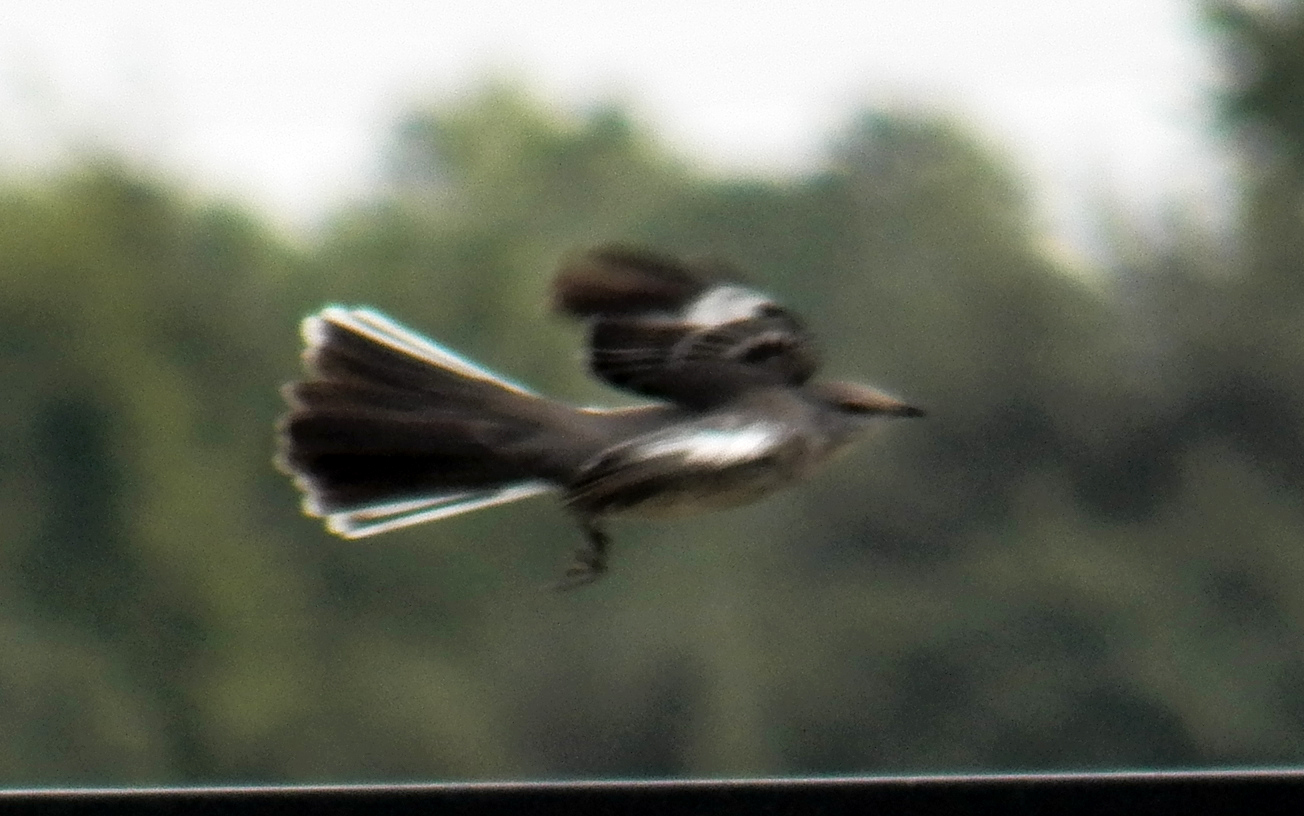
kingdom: Animalia
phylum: Chordata
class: Aves
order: Passeriformes
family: Mimidae
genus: Mimus
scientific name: Mimus polyglottos
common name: Northern mockingbird
